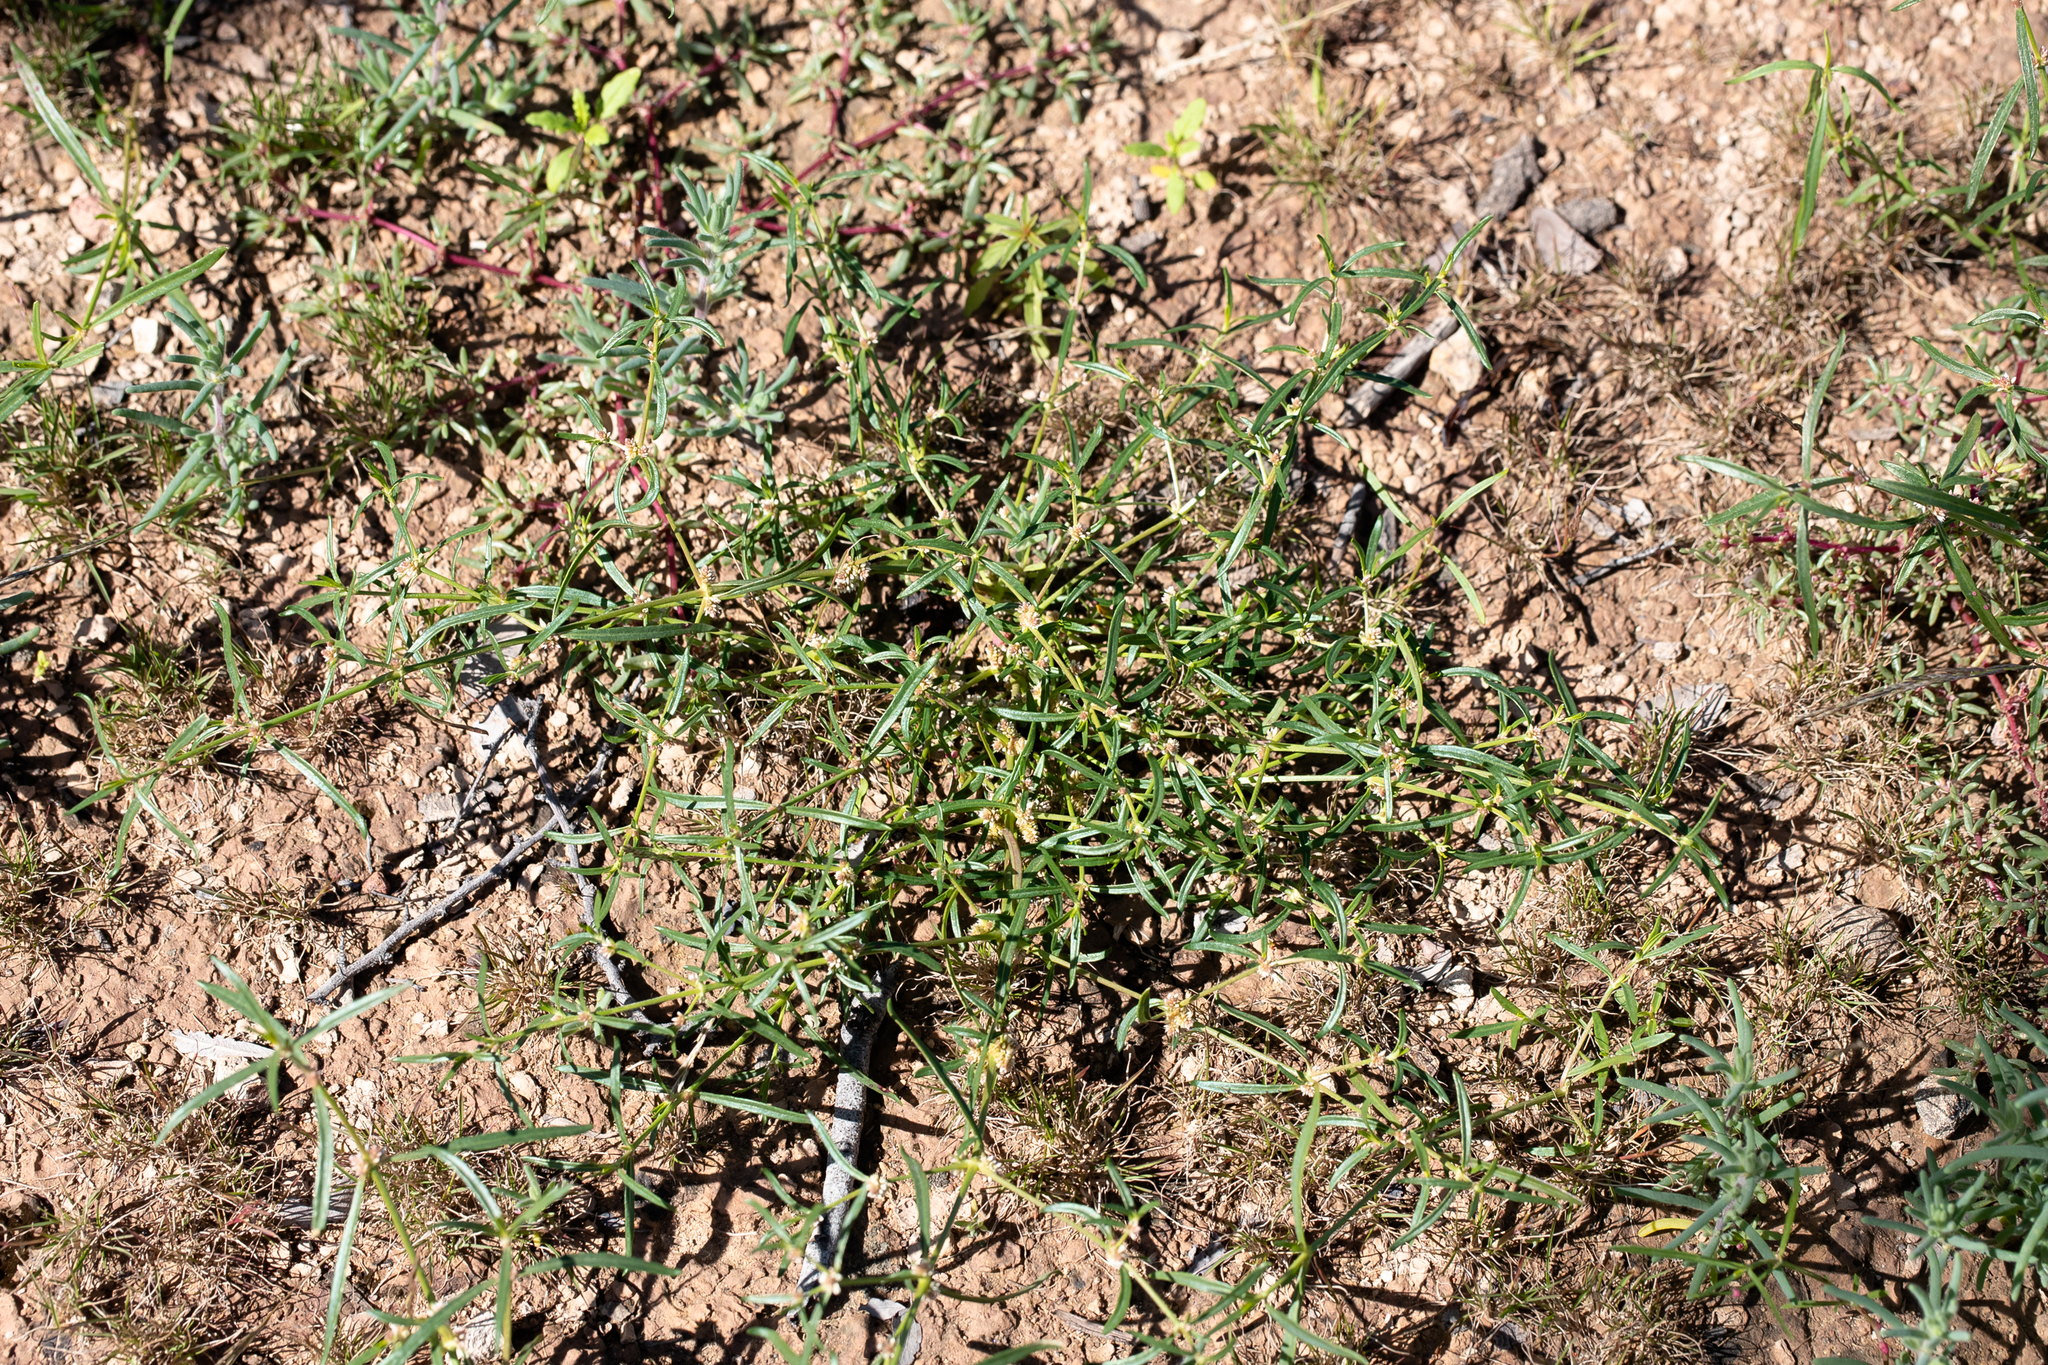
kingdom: Plantae
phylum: Tracheophyta
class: Magnoliopsida
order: Caryophyllales
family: Amaranthaceae
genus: Alternanthera
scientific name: Alternanthera denticulata
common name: Lesser joyweed
